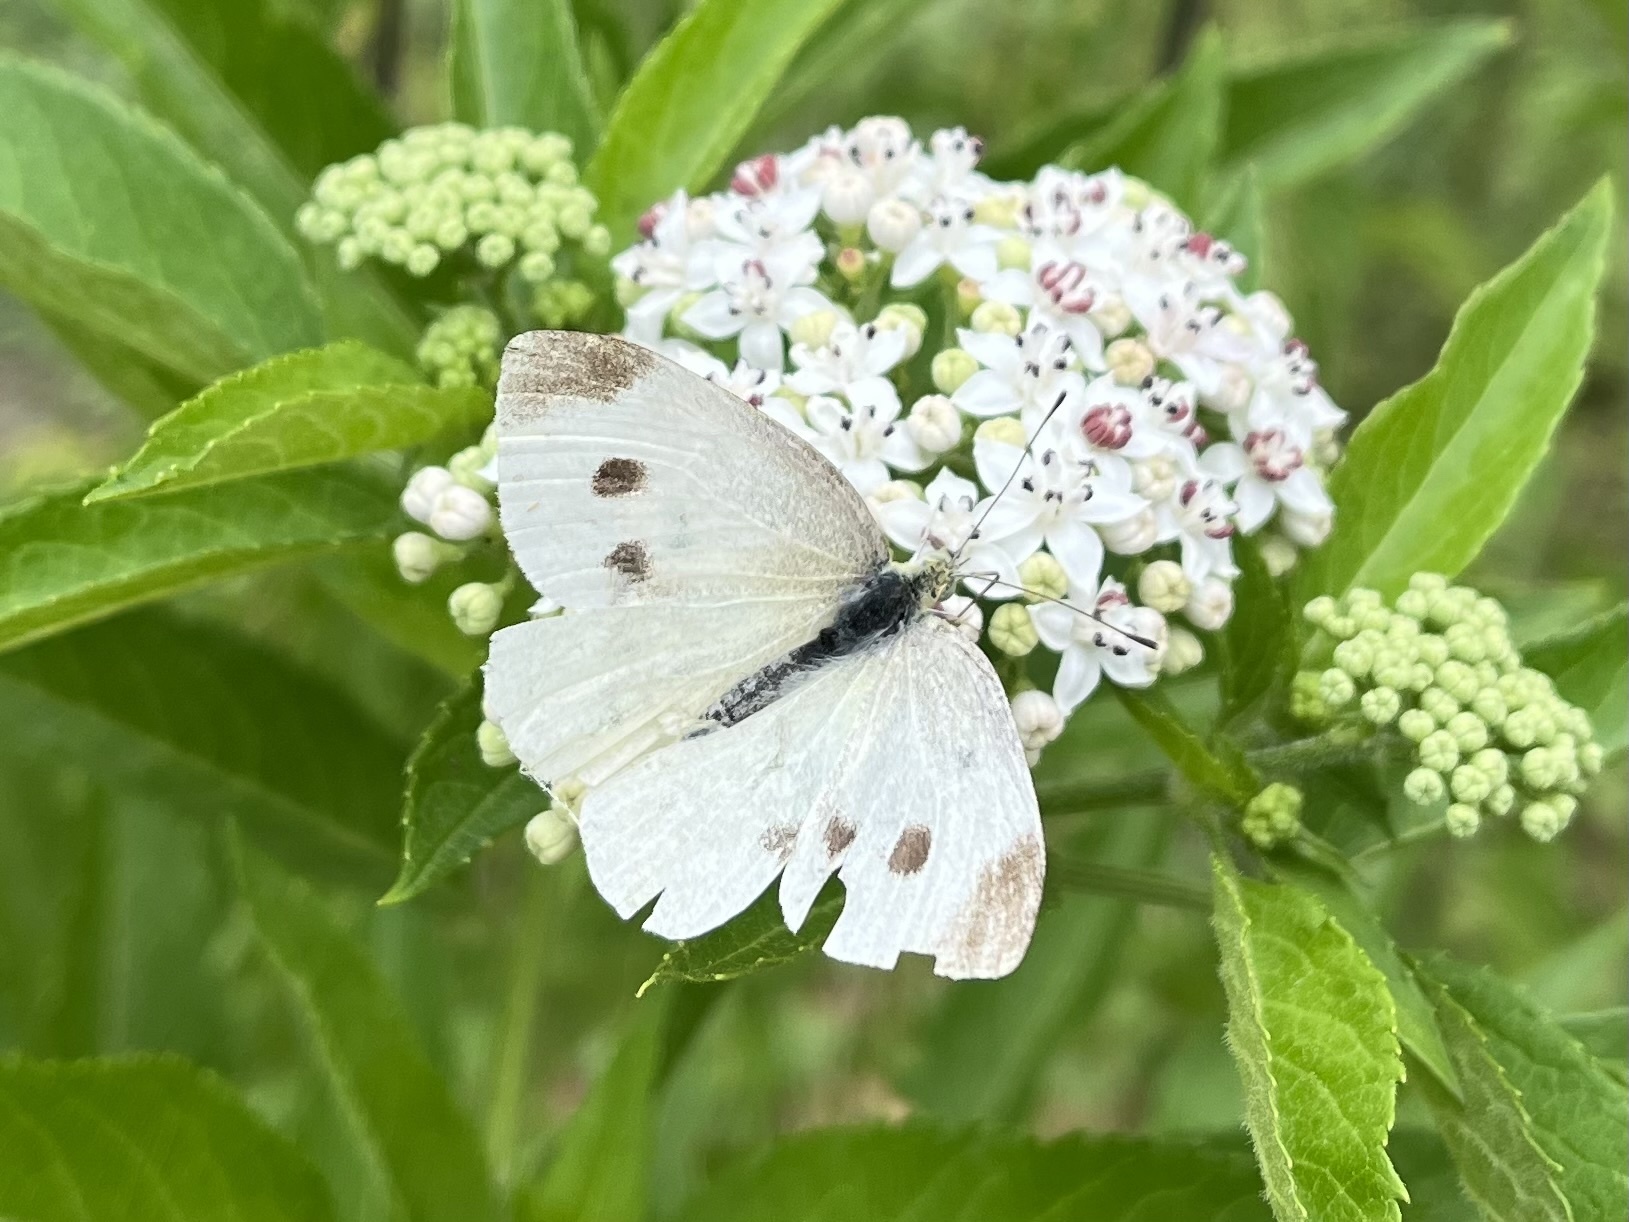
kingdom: Animalia
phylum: Arthropoda
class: Insecta
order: Lepidoptera
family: Pieridae
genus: Pieris
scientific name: Pieris rapae
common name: Small white
